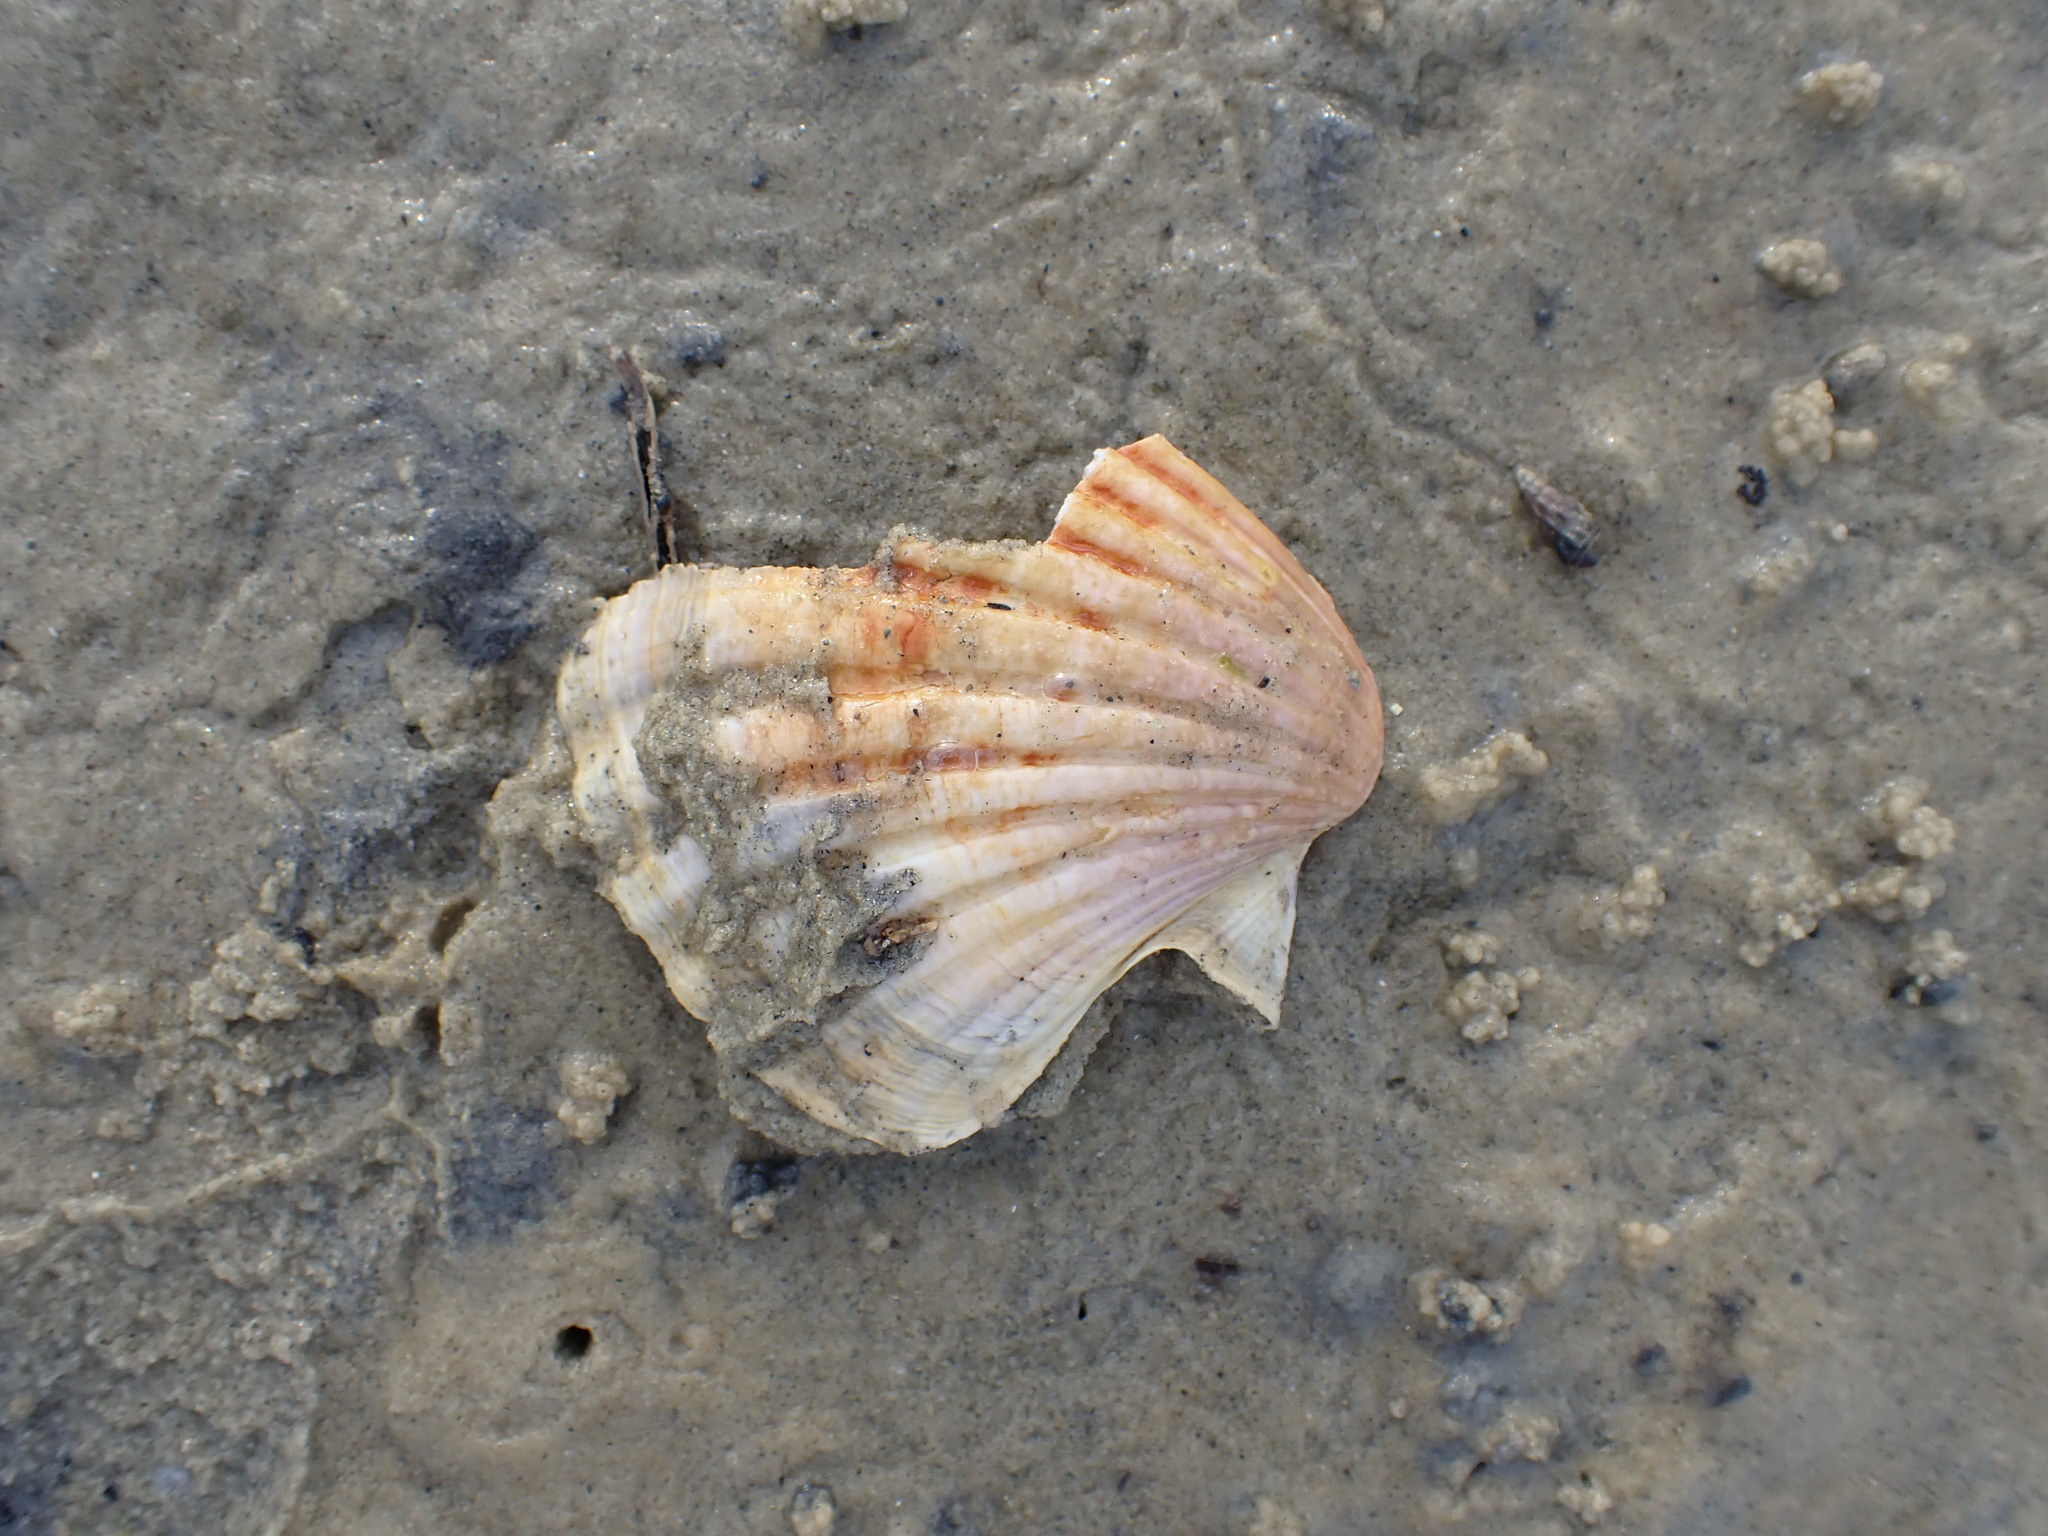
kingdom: Animalia
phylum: Mollusca
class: Bivalvia
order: Pectinida
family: Pectinidae
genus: Pecten
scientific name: Pecten novaezelandiae
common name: New zealand scallop
